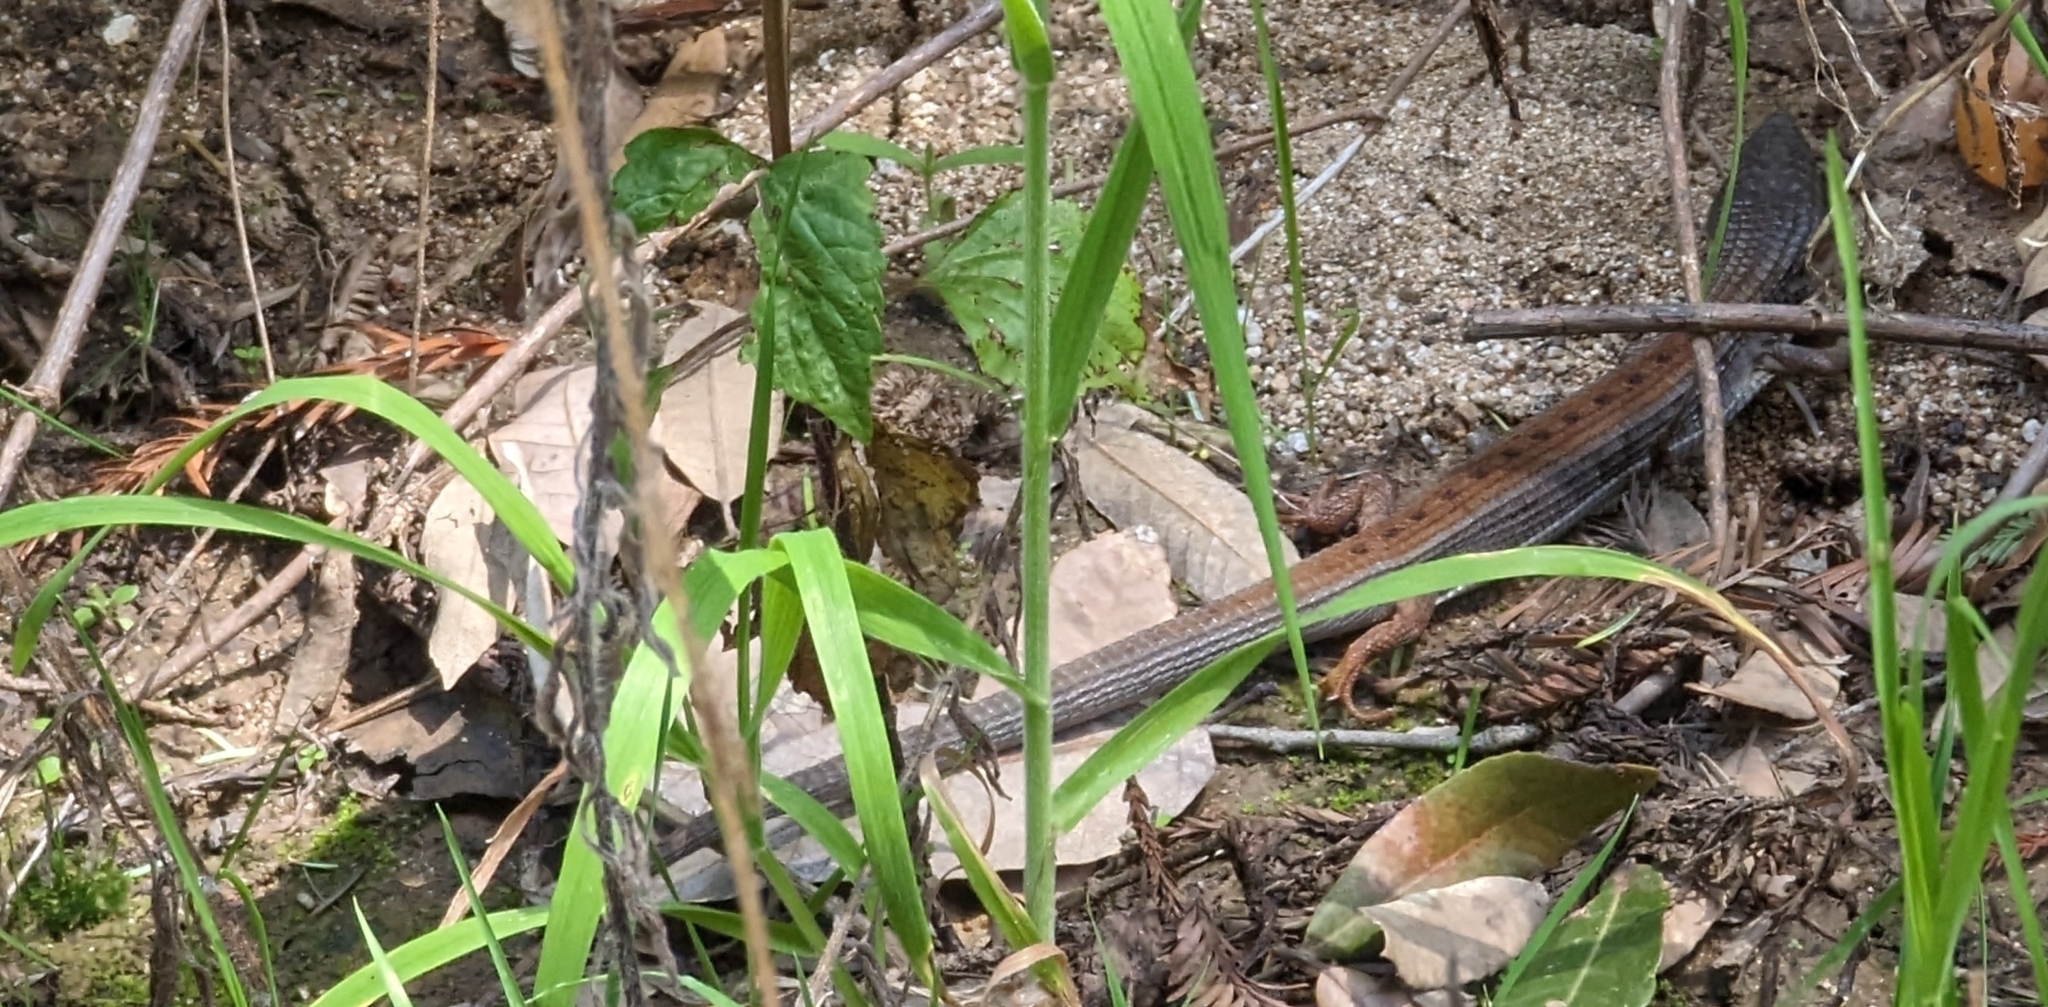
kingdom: Animalia
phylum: Chordata
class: Squamata
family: Anguidae
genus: Elgaria
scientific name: Elgaria multicarinata
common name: Southern alligator lizard
